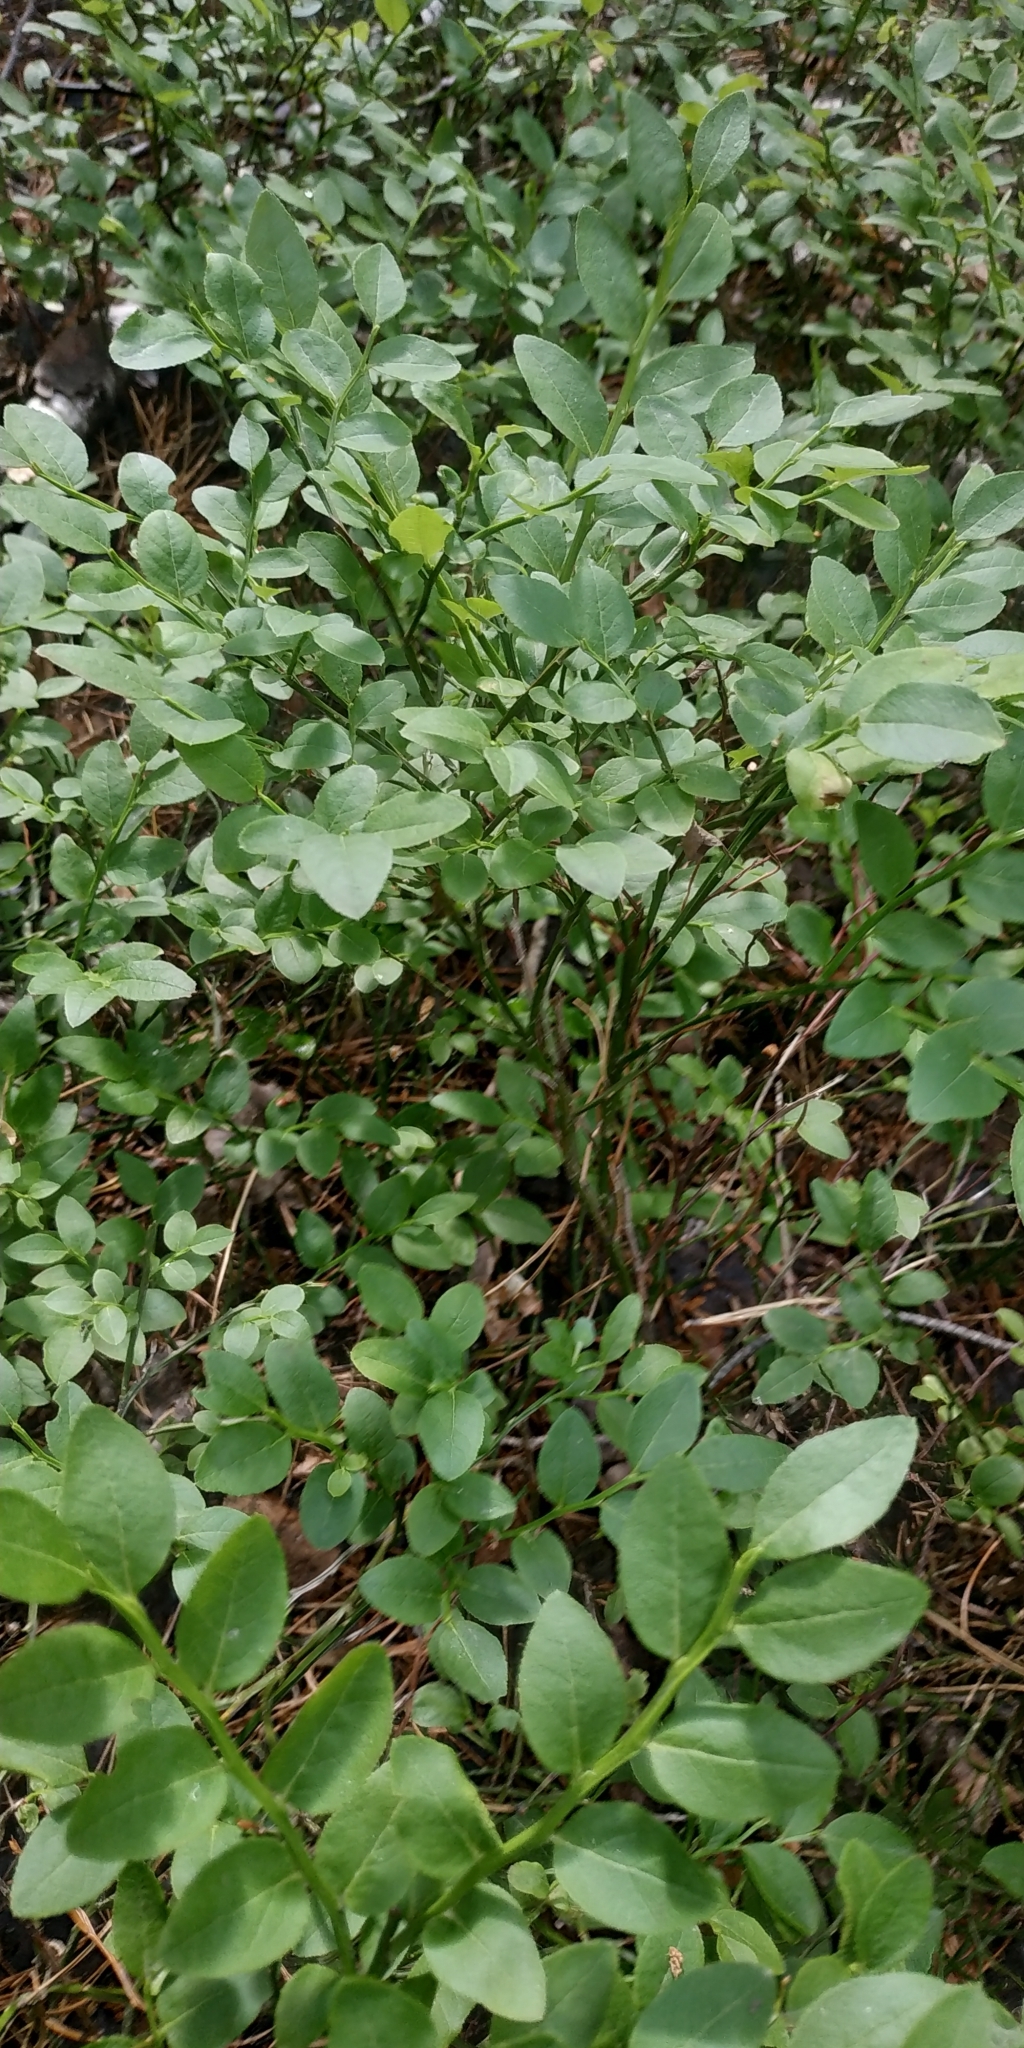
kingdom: Plantae
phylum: Tracheophyta
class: Magnoliopsida
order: Ericales
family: Ericaceae
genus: Vaccinium
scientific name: Vaccinium myrtillus
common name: Bilberry
